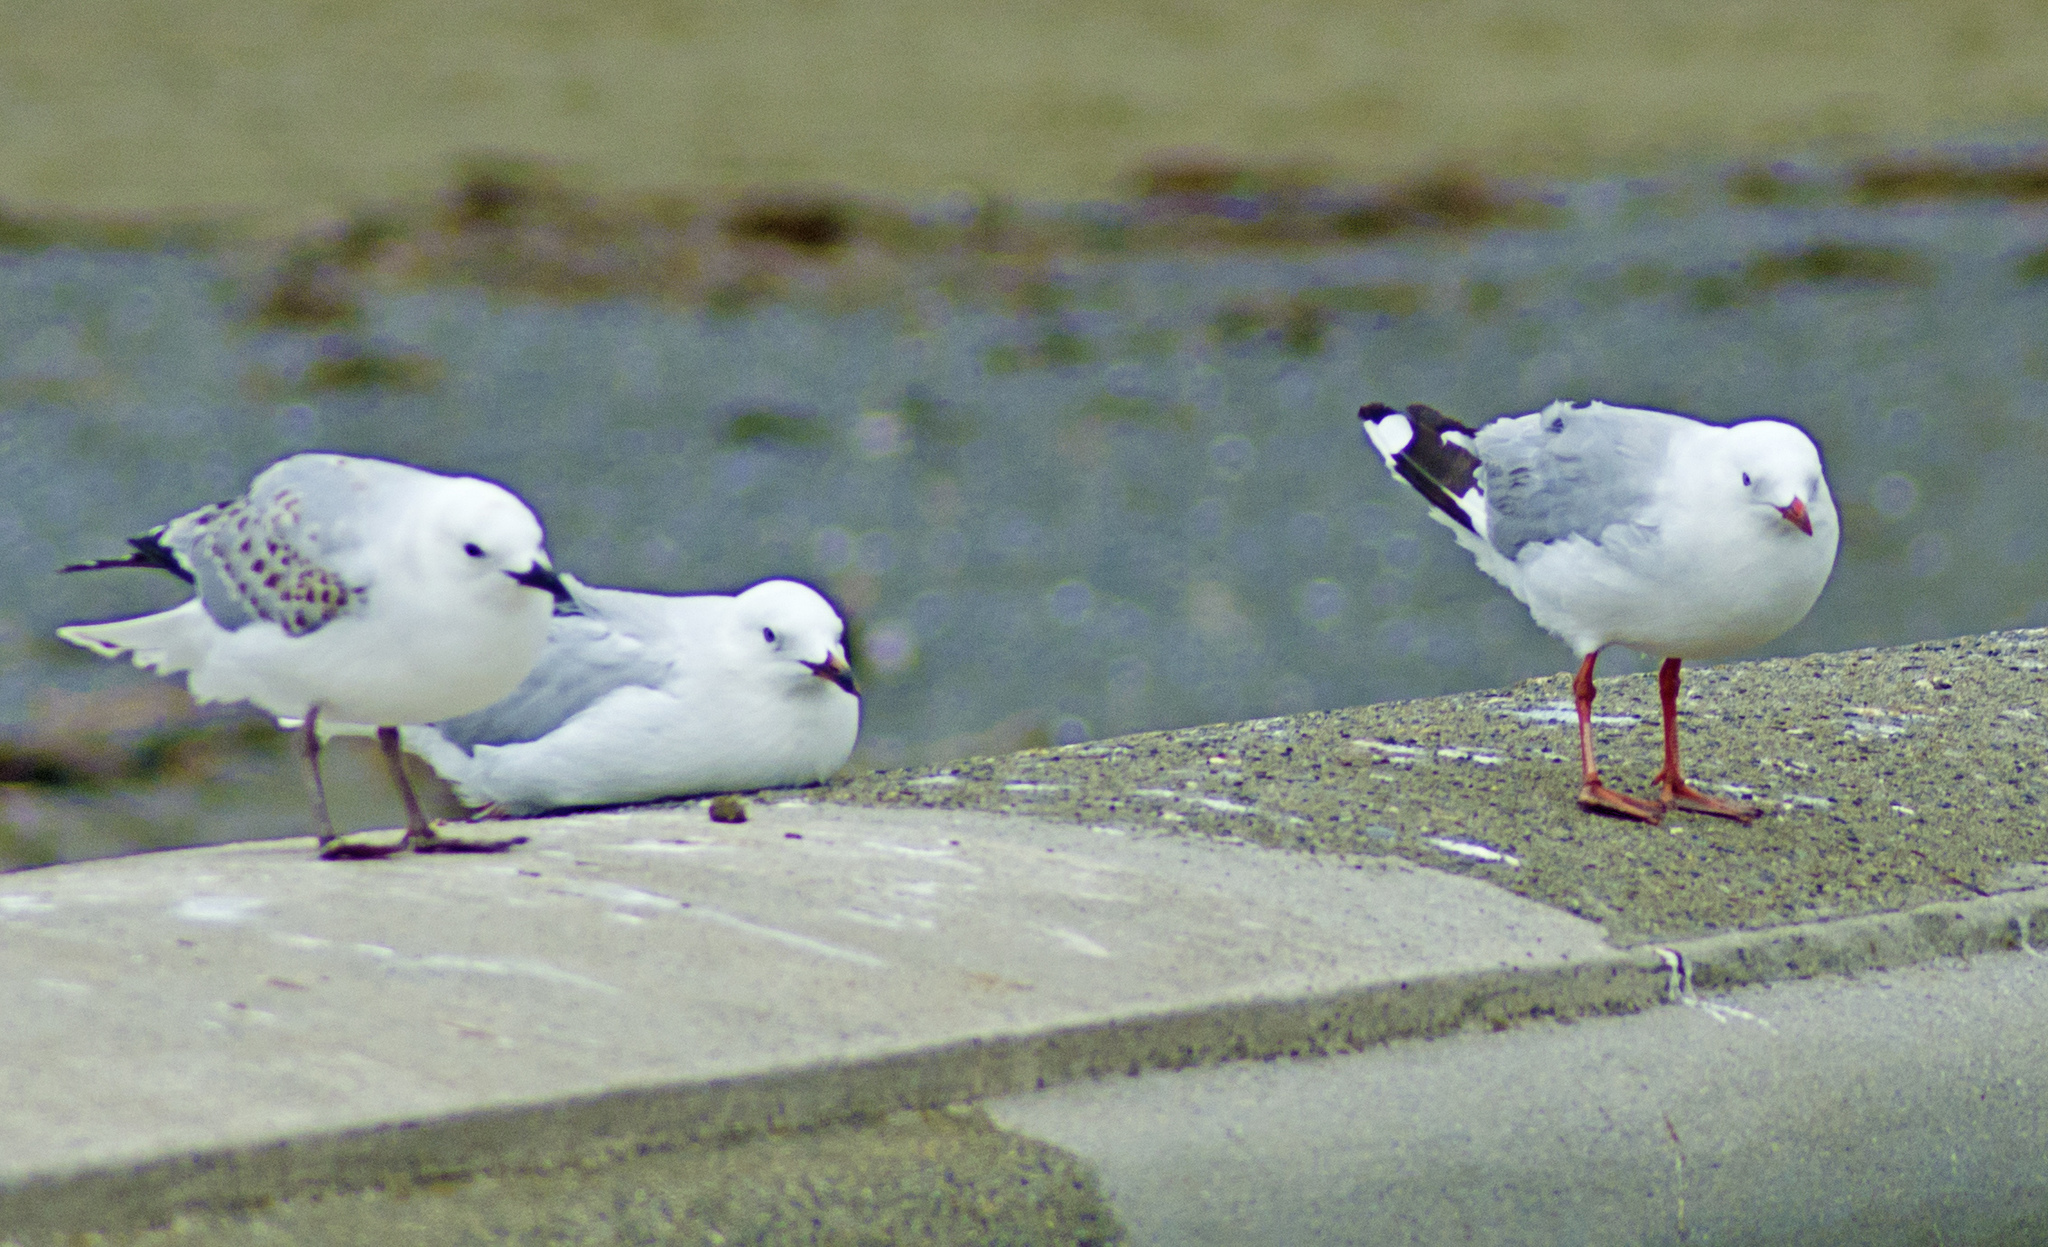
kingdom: Animalia
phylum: Chordata
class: Aves
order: Charadriiformes
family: Laridae
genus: Chroicocephalus
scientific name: Chroicocephalus novaehollandiae
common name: Silver gull
